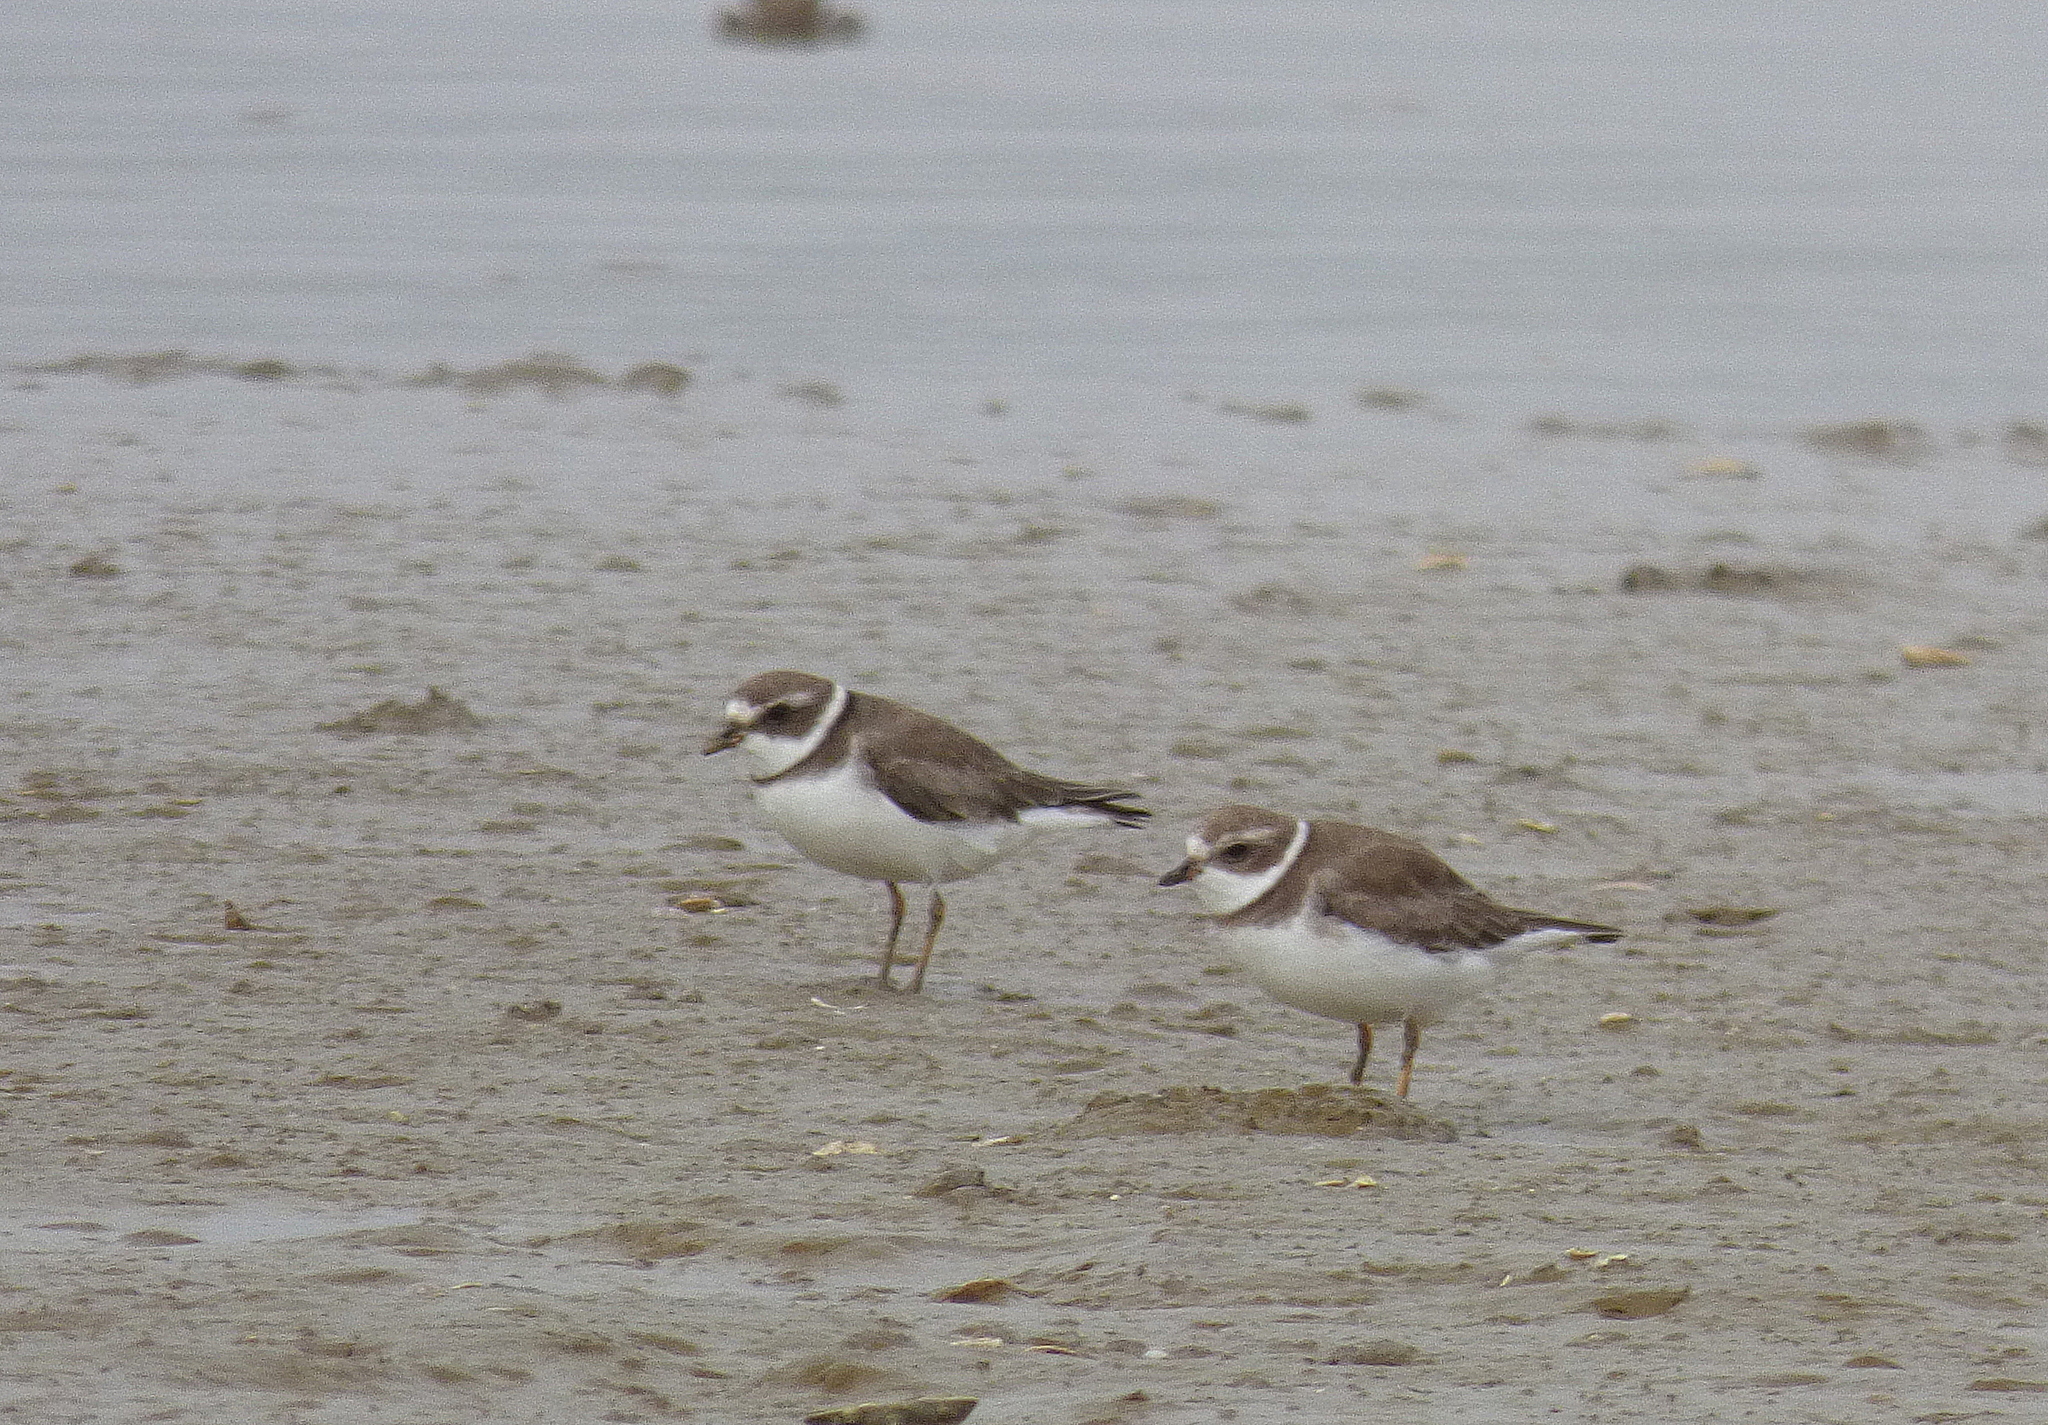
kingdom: Animalia
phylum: Chordata
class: Aves
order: Charadriiformes
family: Charadriidae
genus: Charadrius
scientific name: Charadrius semipalmatus
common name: Semipalmated plover
